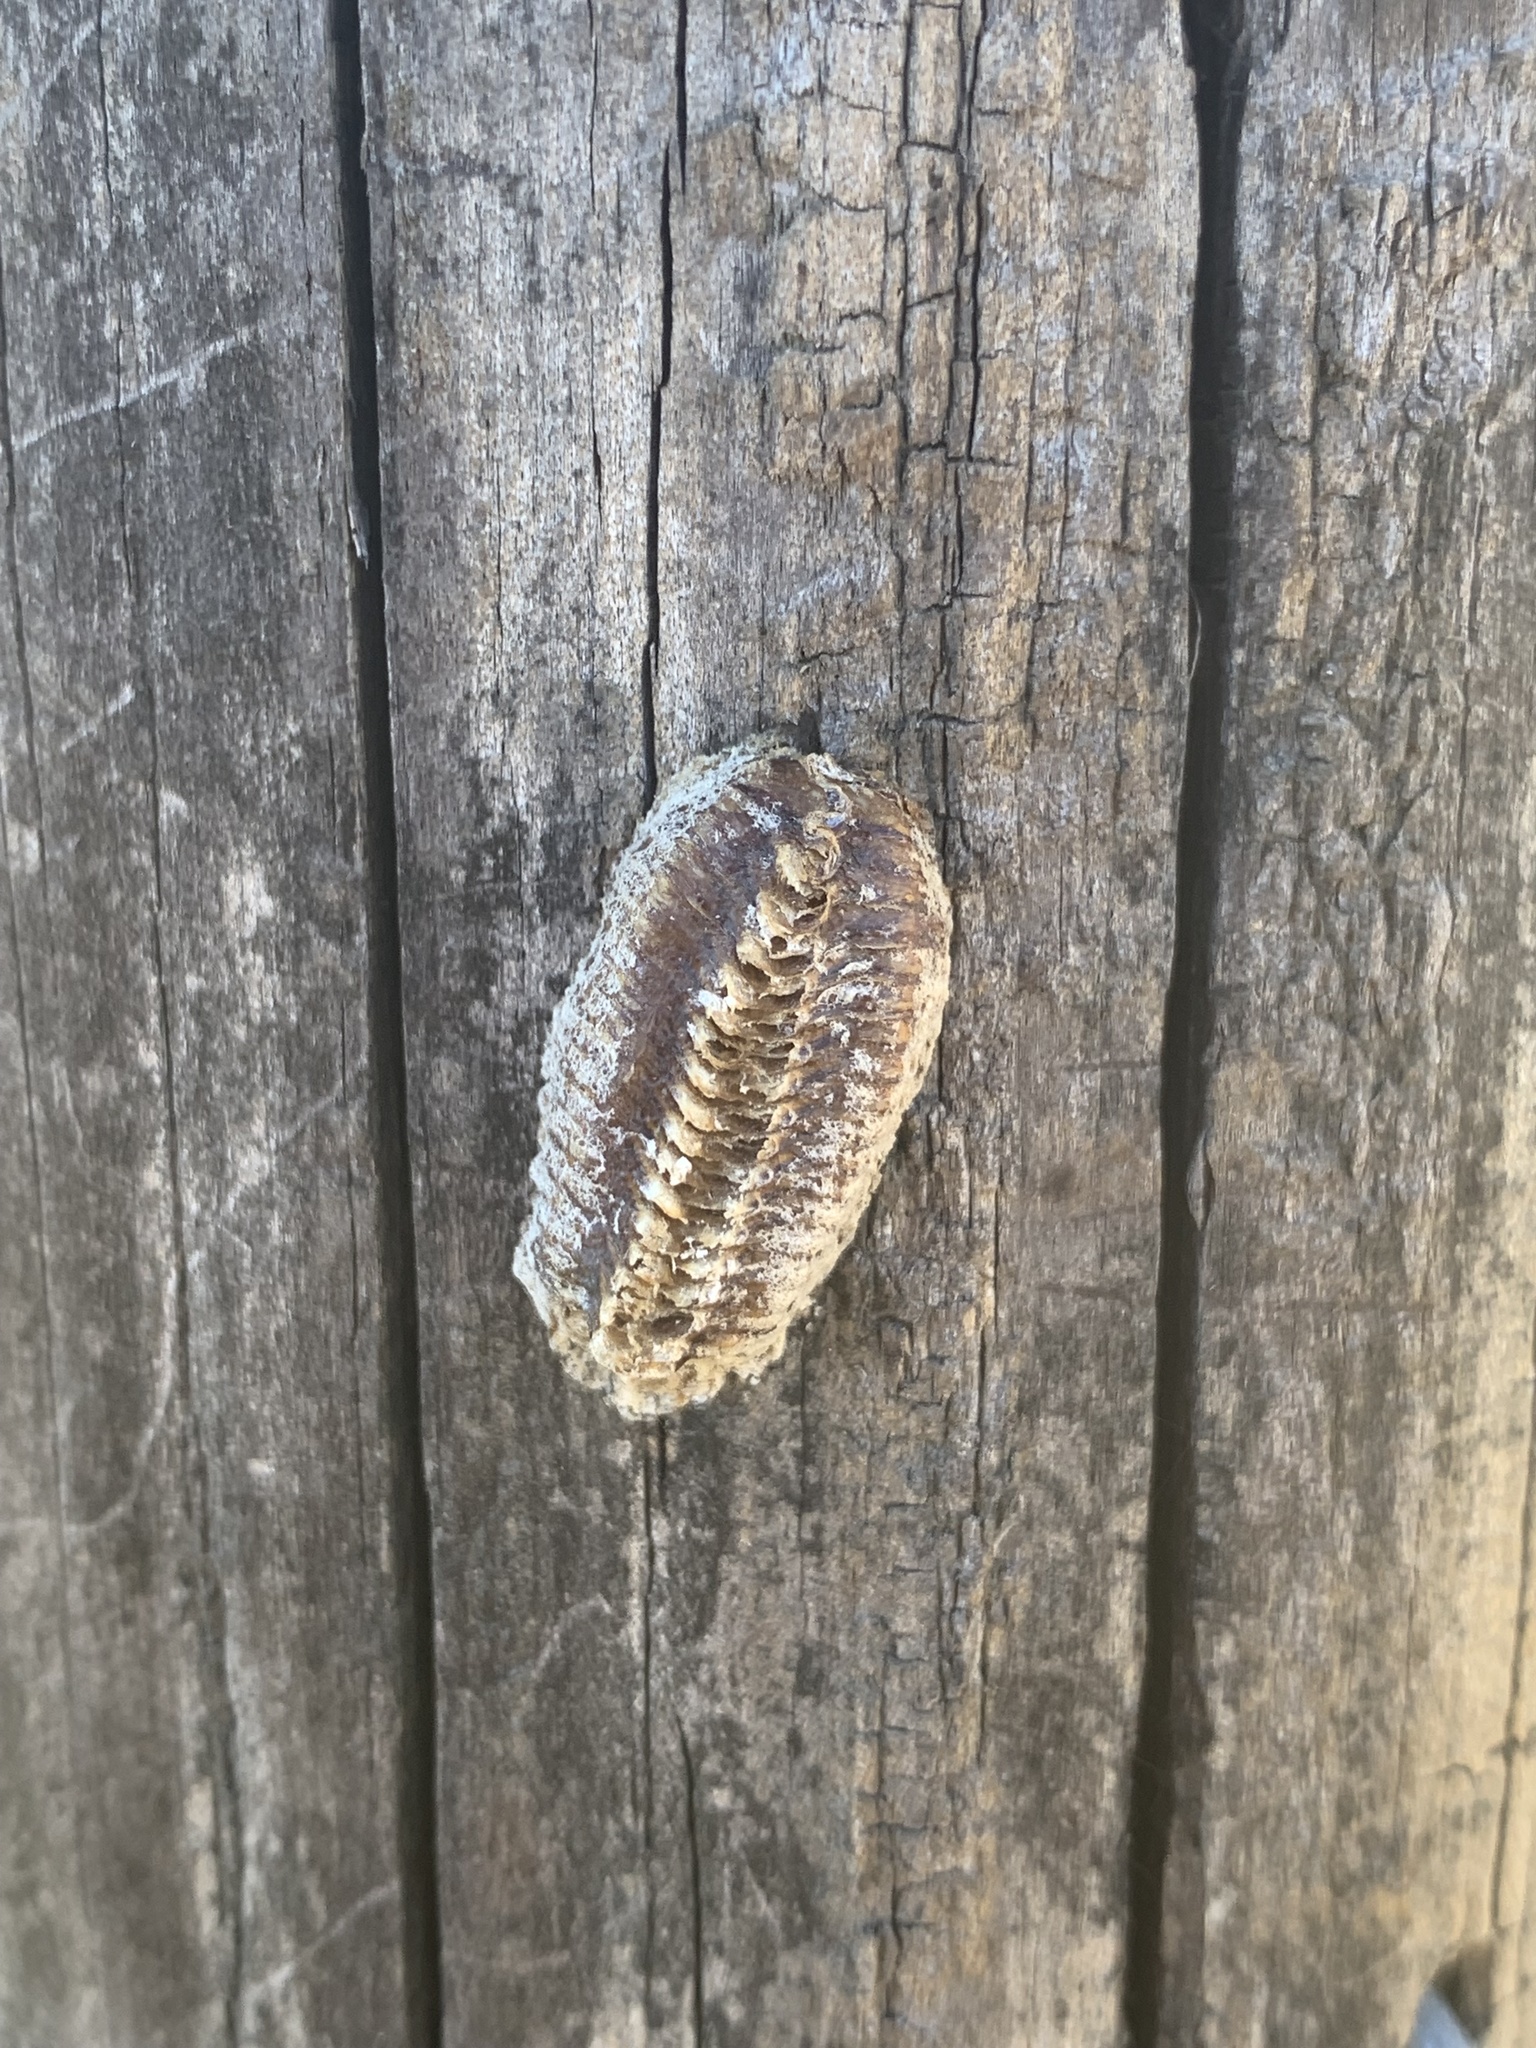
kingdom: Animalia
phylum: Arthropoda
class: Insecta
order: Mantodea
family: Mantidae
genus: Stagmomantis
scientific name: Stagmomantis carolina
